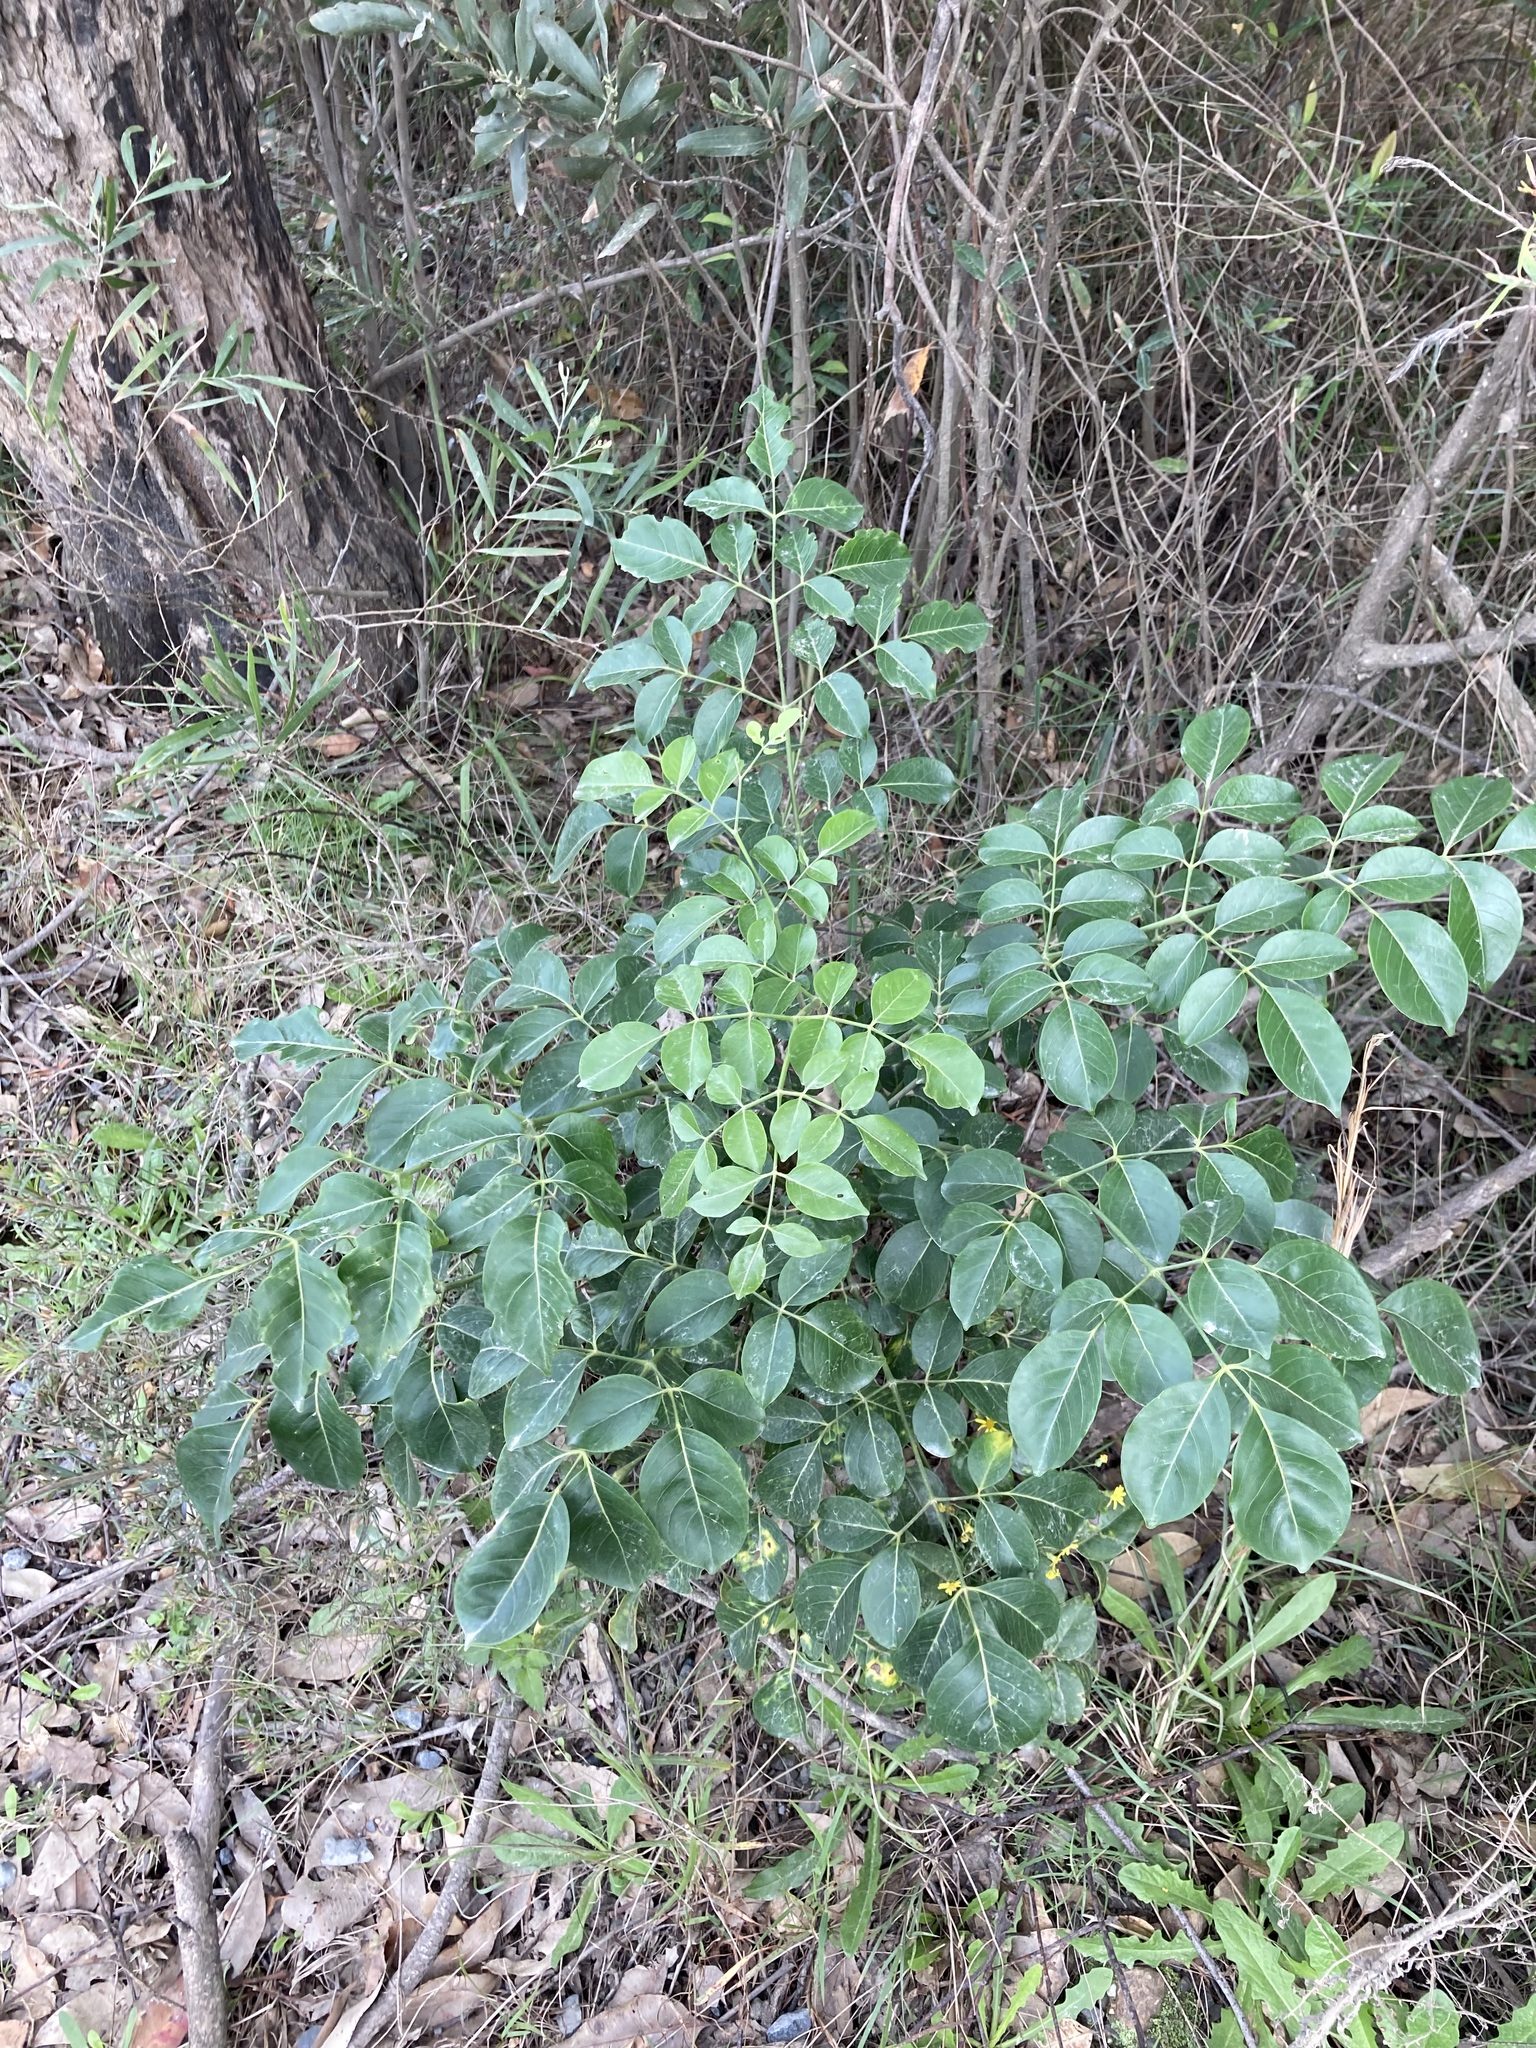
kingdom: Plantae
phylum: Tracheophyta
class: Magnoliopsida
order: Apiales
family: Araliaceae
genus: Polyscias
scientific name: Polyscias elegans
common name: Mowbulan whitewood
